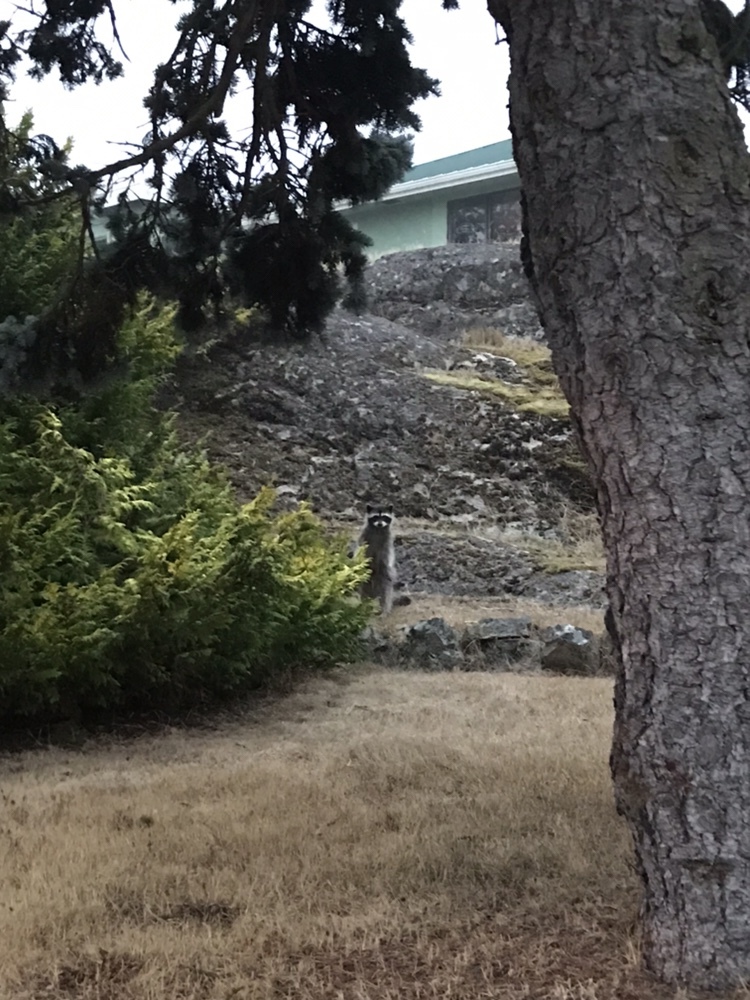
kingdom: Animalia
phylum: Chordata
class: Mammalia
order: Carnivora
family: Procyonidae
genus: Procyon
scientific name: Procyon lotor
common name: Raccoon
